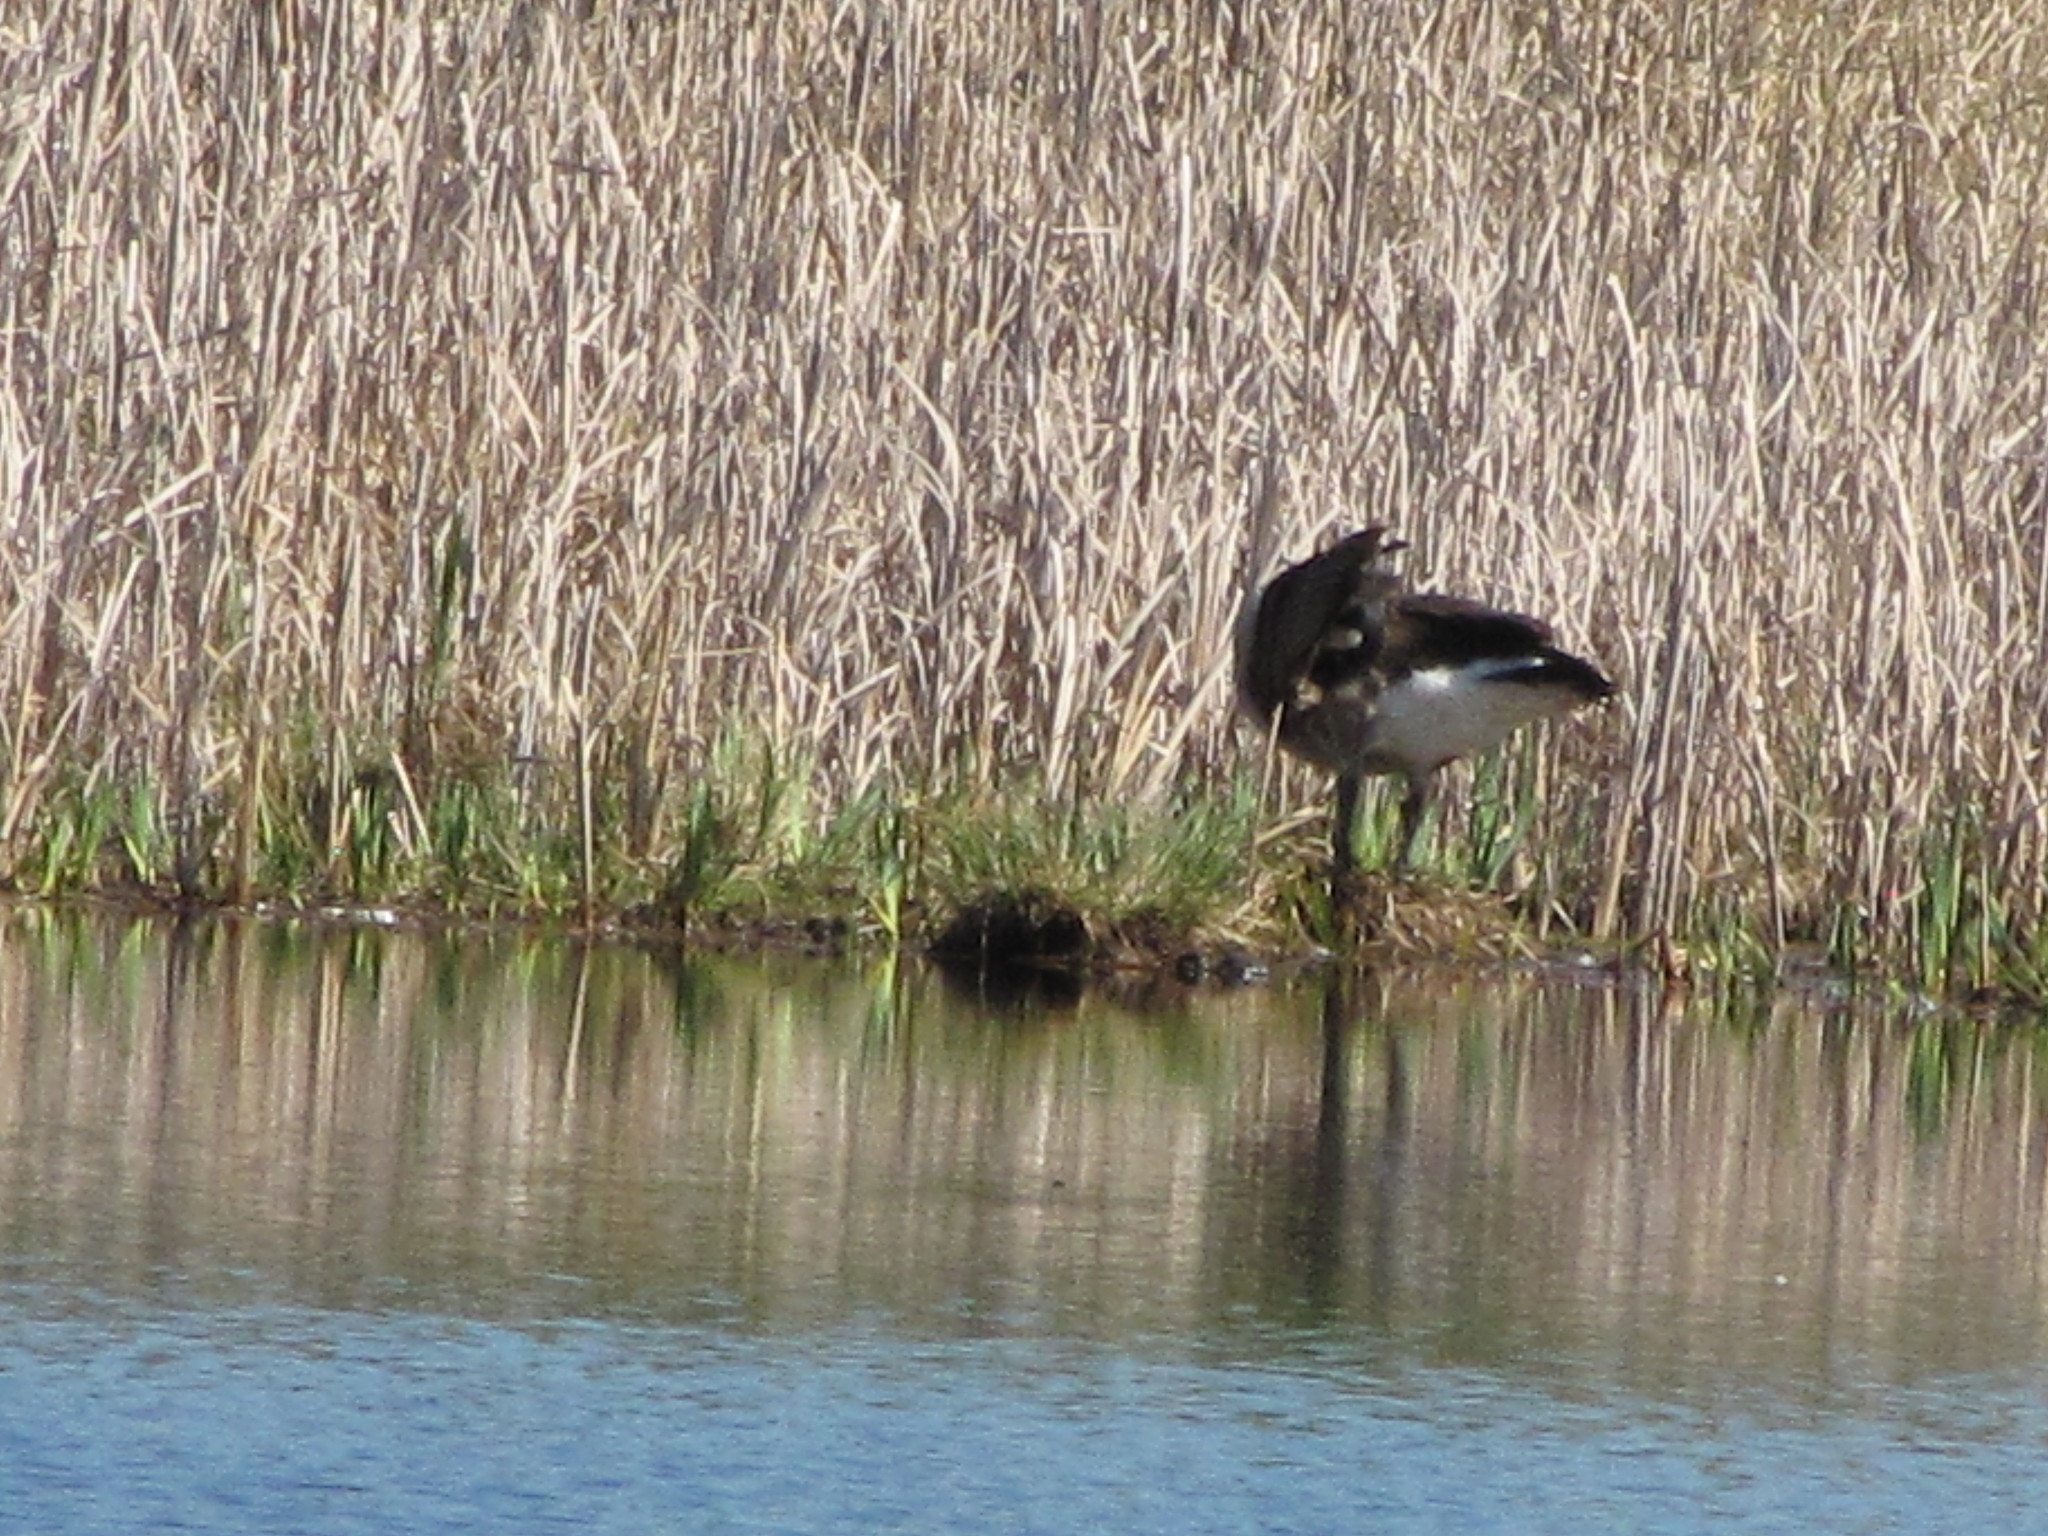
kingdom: Animalia
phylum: Chordata
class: Aves
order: Anseriformes
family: Anatidae
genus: Branta
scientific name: Branta canadensis
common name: Canada goose
